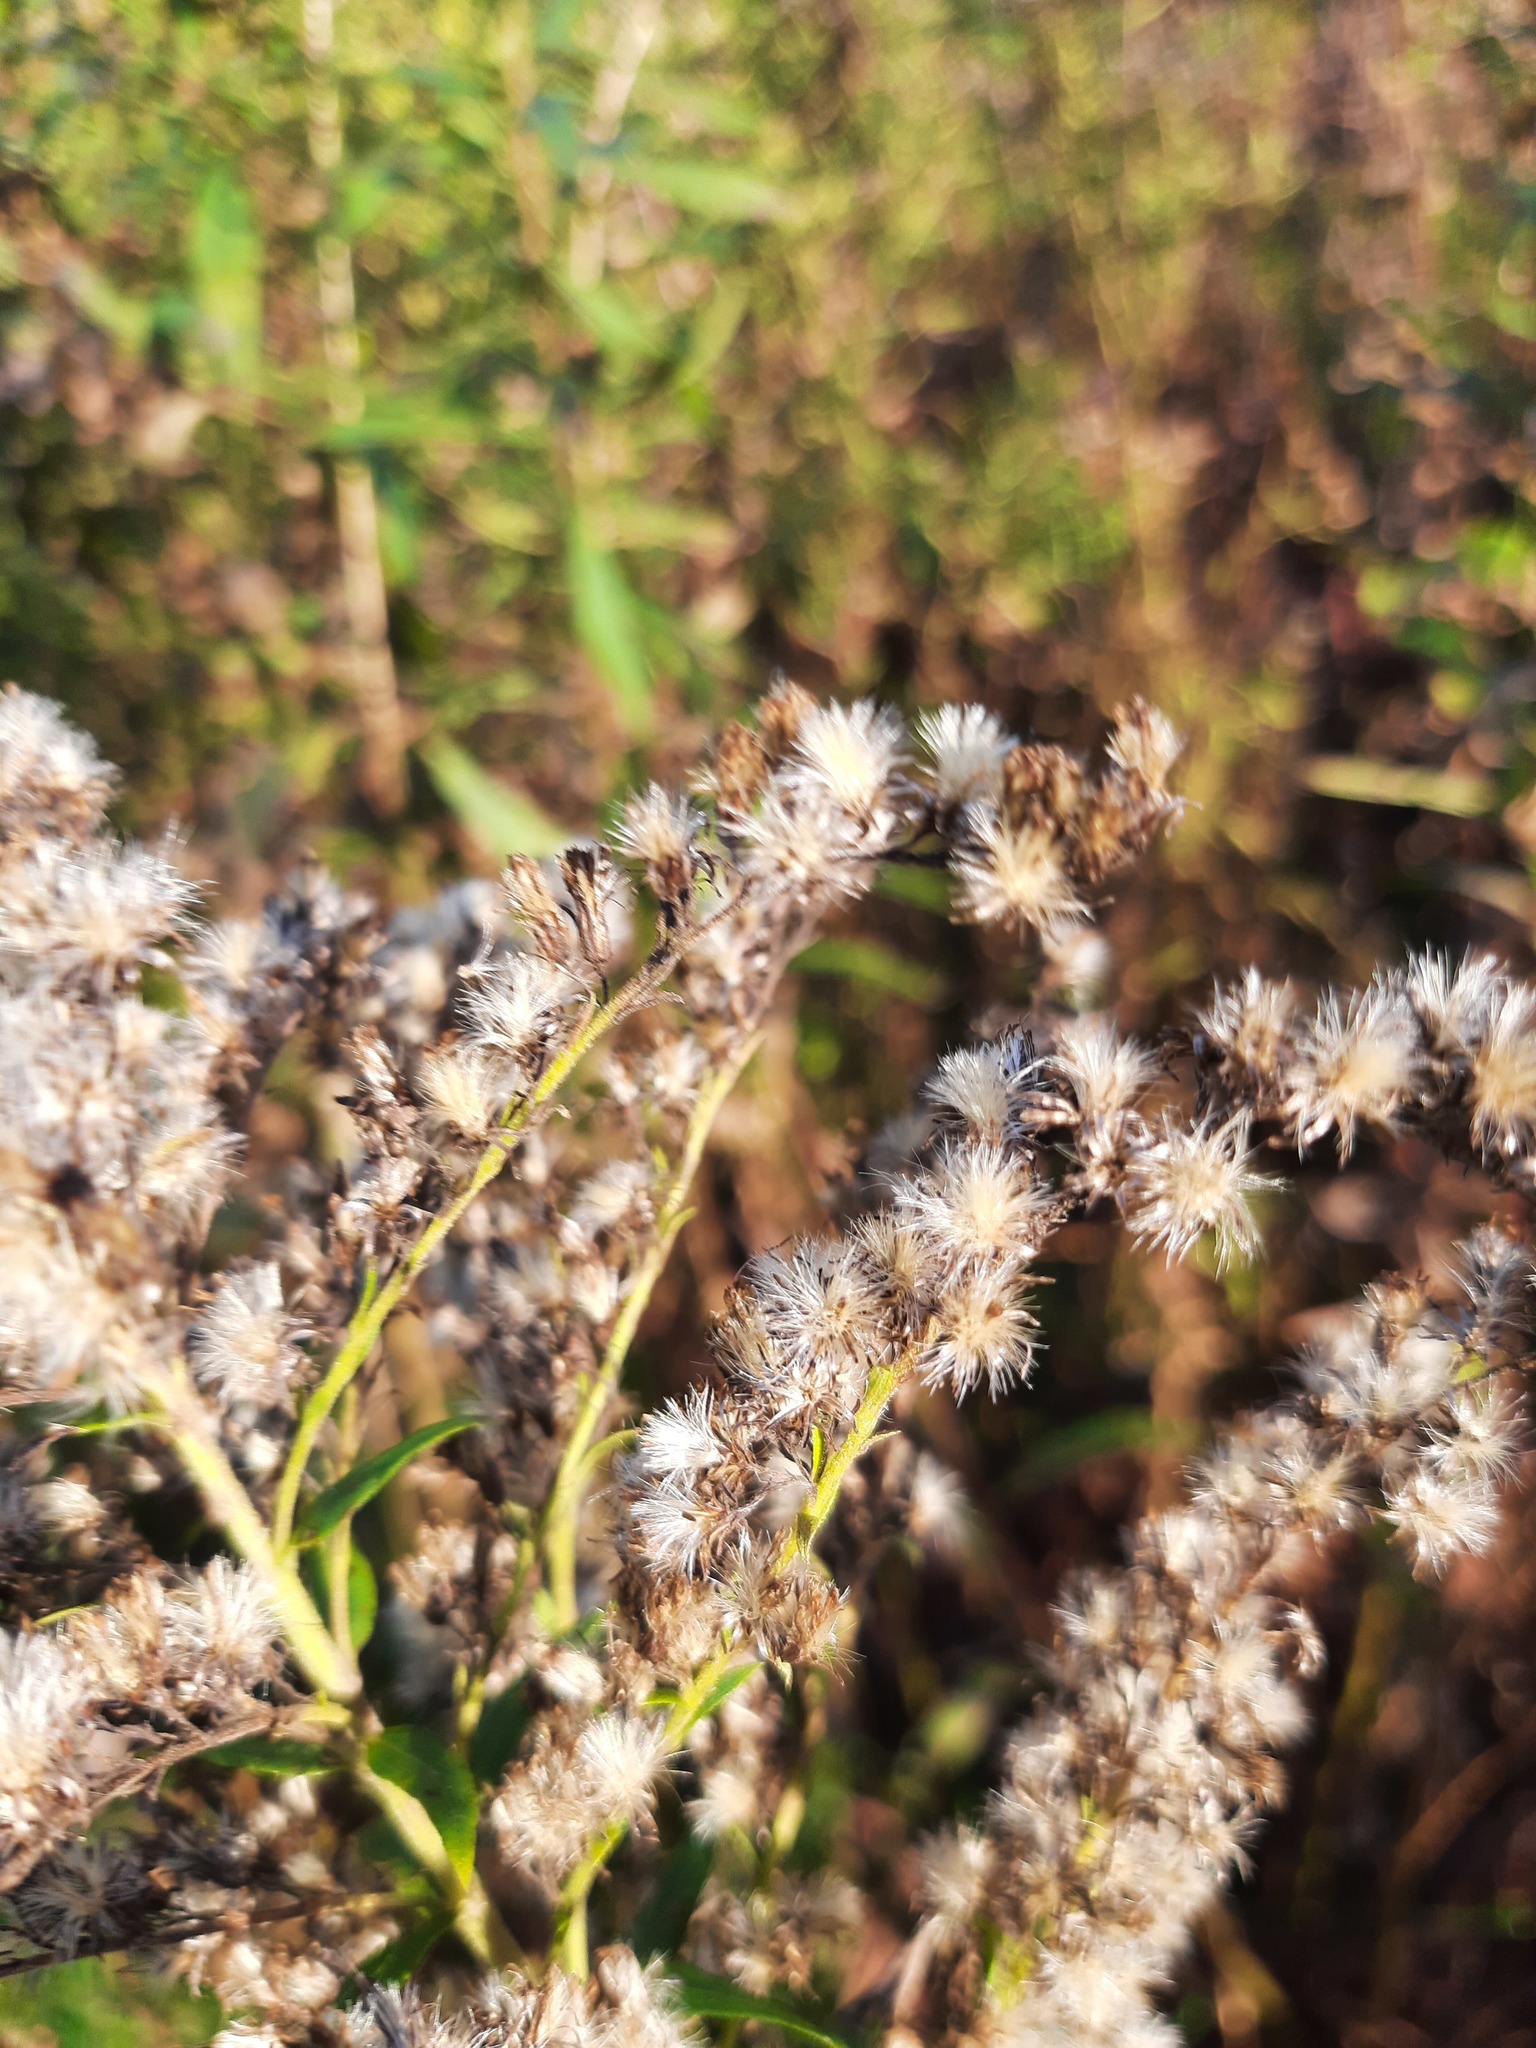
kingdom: Plantae
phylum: Tracheophyta
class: Magnoliopsida
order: Asterales
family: Asteraceae
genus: Solidago
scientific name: Solidago altissima
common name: Late goldenrod
